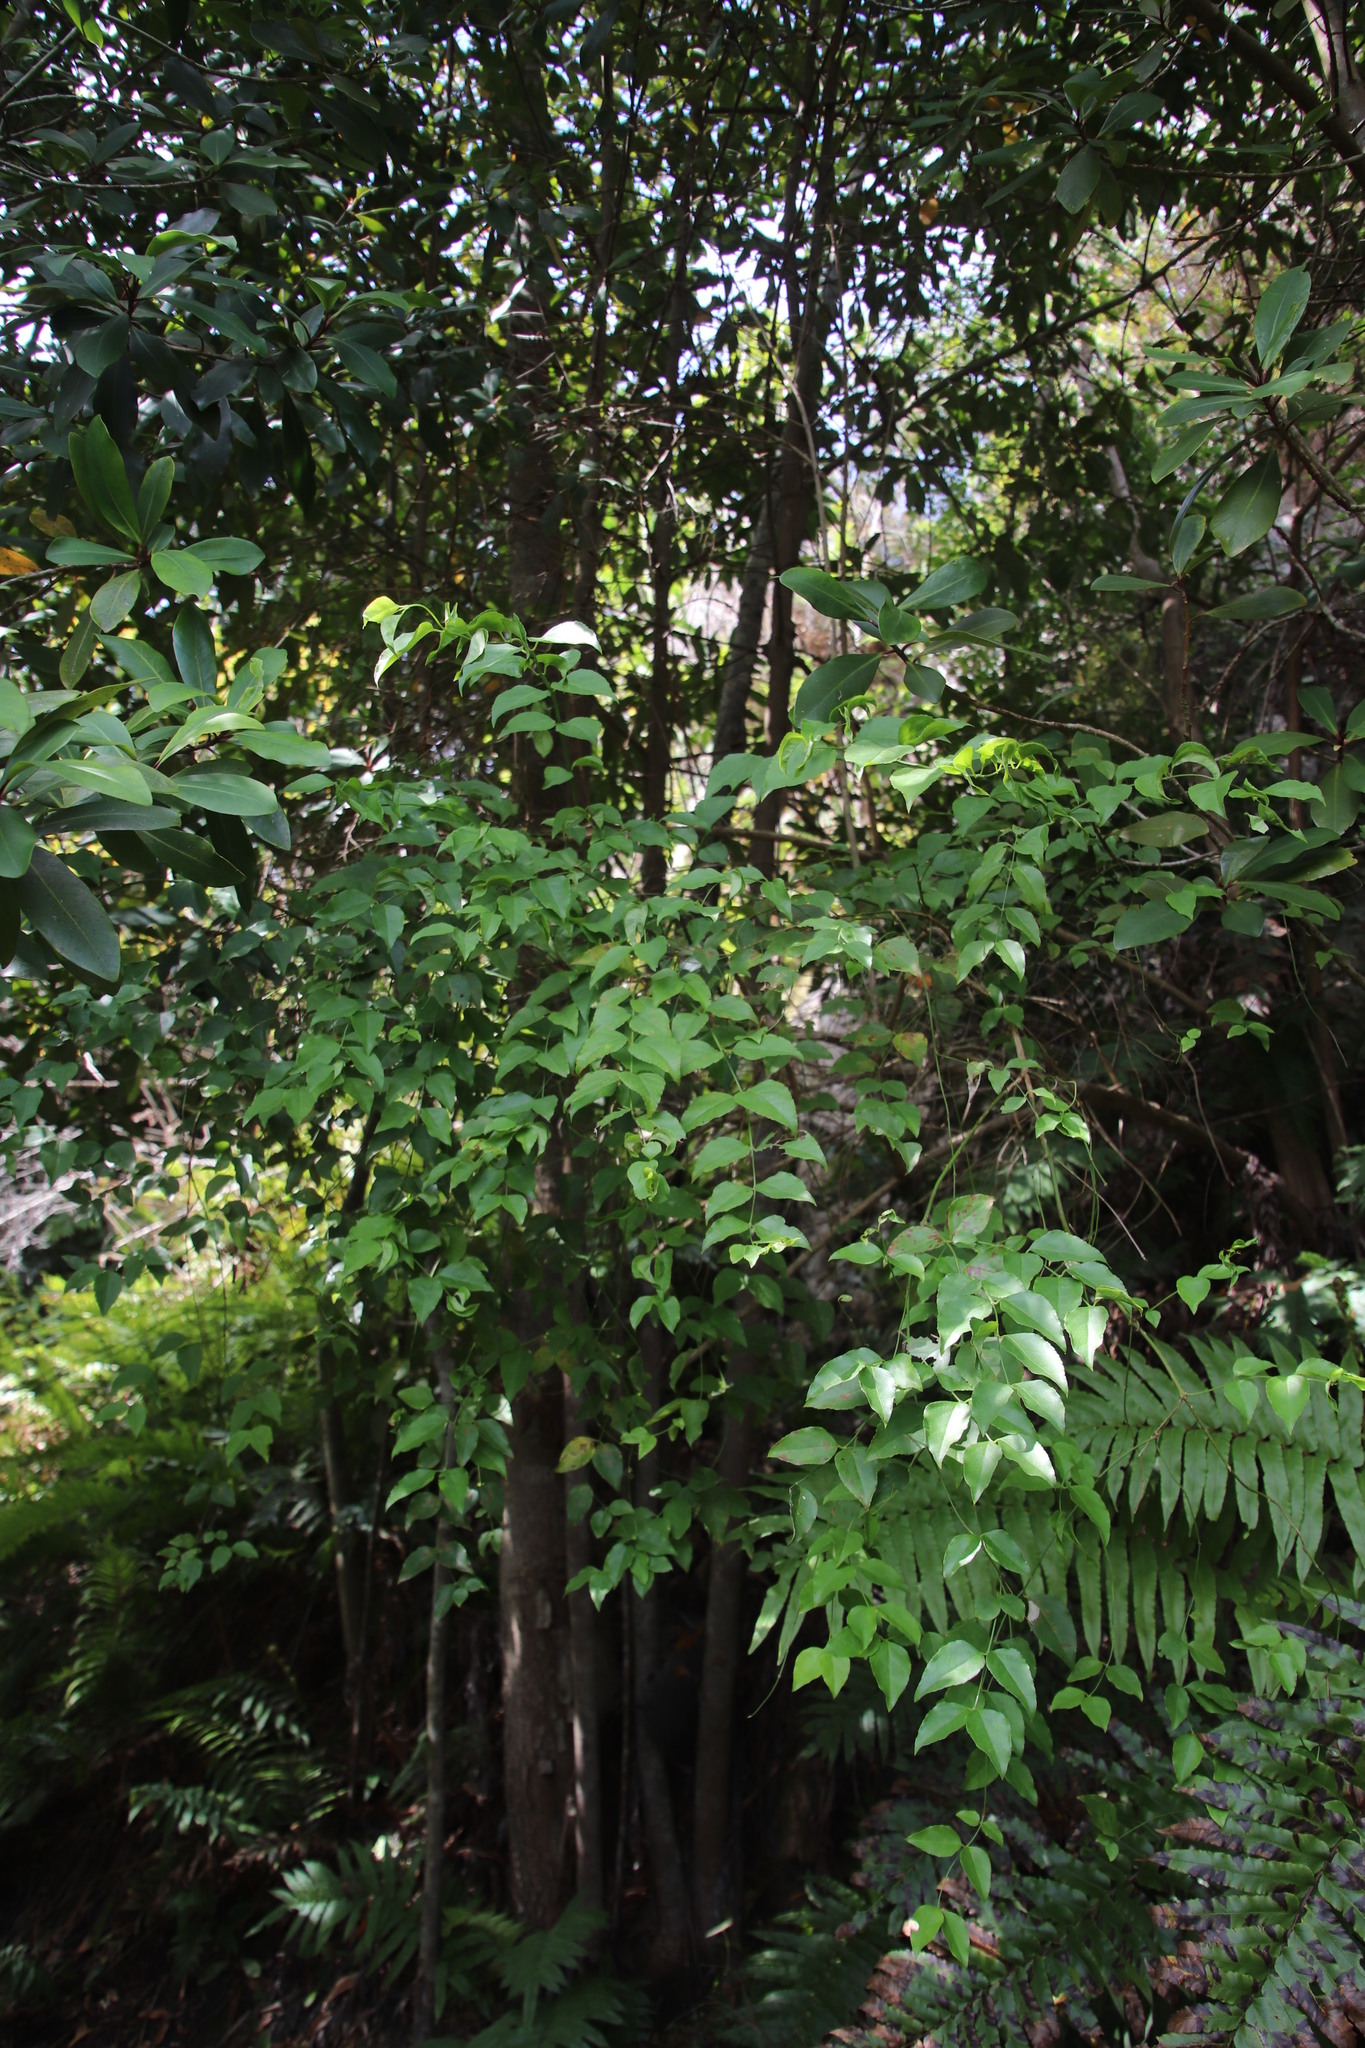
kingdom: Plantae
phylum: Tracheophyta
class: Magnoliopsida
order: Lamiales
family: Stilbaceae
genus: Halleria
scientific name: Halleria lucida
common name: Tree fuschia
